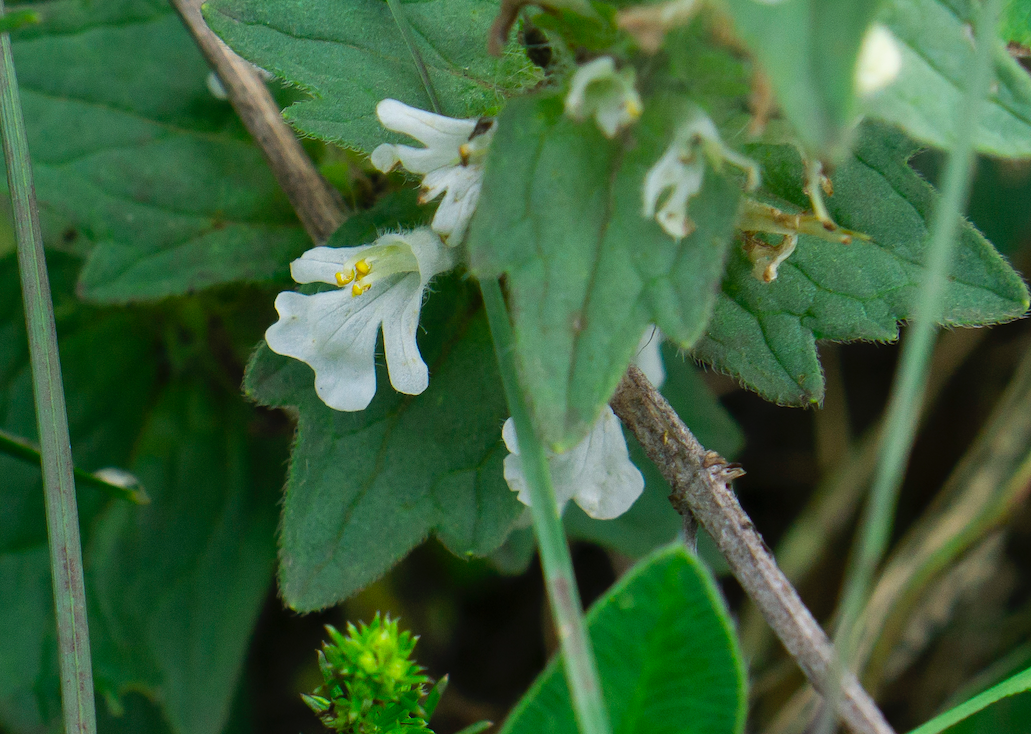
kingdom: Plantae
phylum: Tracheophyta
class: Magnoliopsida
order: Lamiales
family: Lamiaceae
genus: Ajuga
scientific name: Ajuga genevensis
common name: Blue bugle
